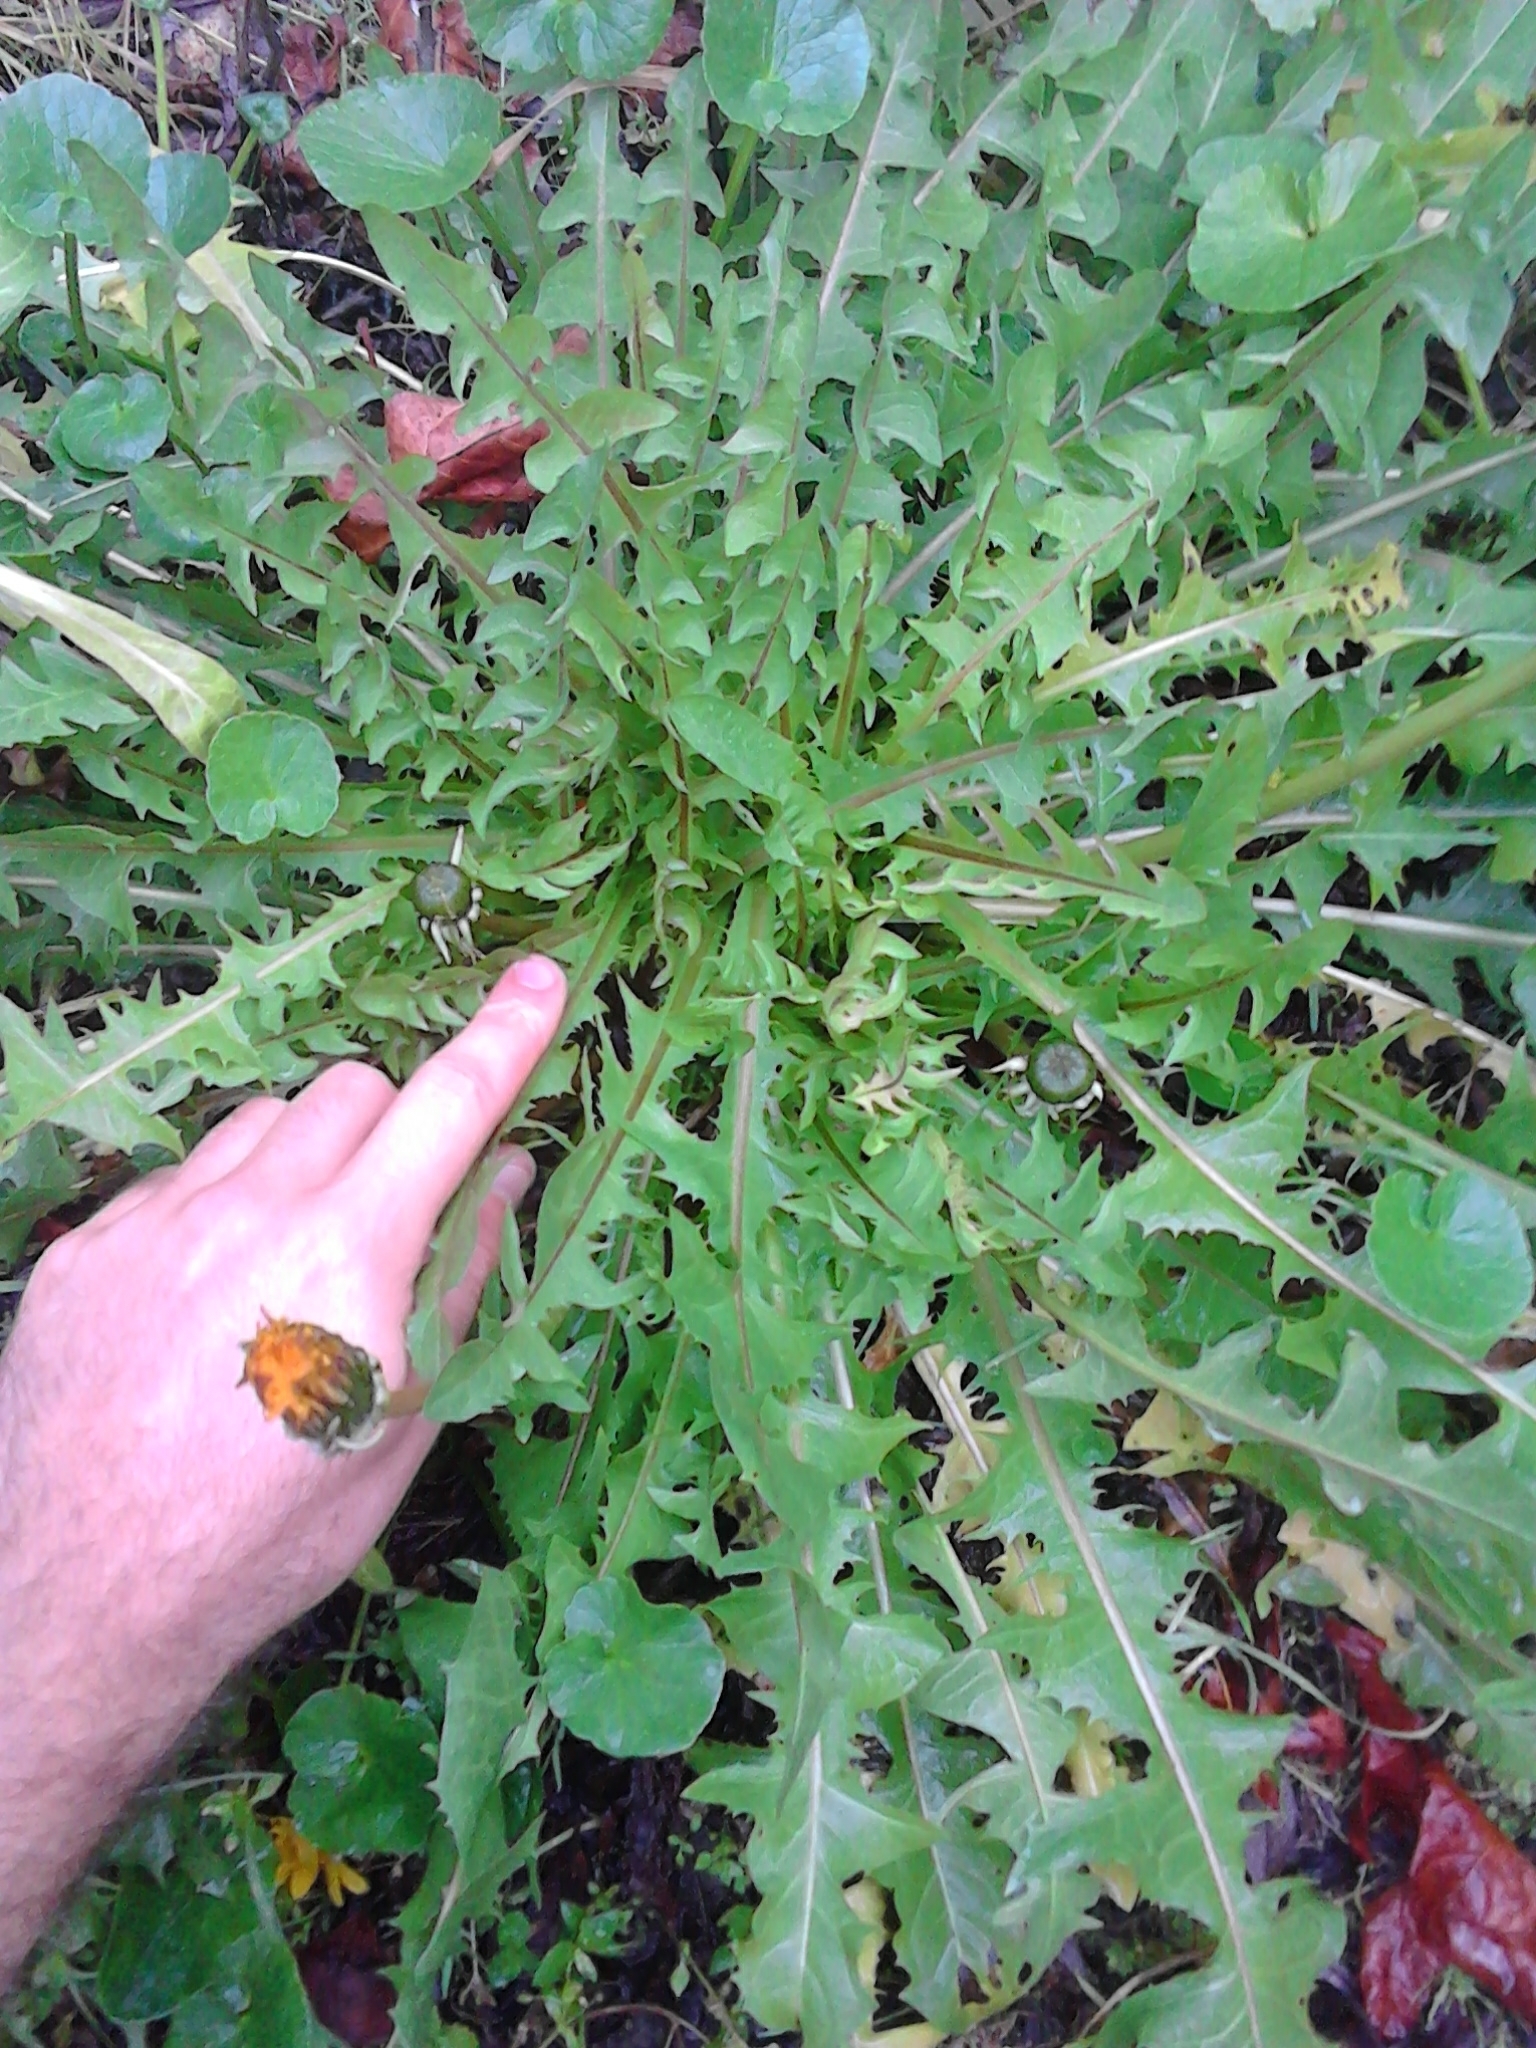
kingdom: Plantae
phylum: Tracheophyta
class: Magnoliopsida
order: Asterales
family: Asteraceae
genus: Taraxacum
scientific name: Taraxacum officinale
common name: Common dandelion
